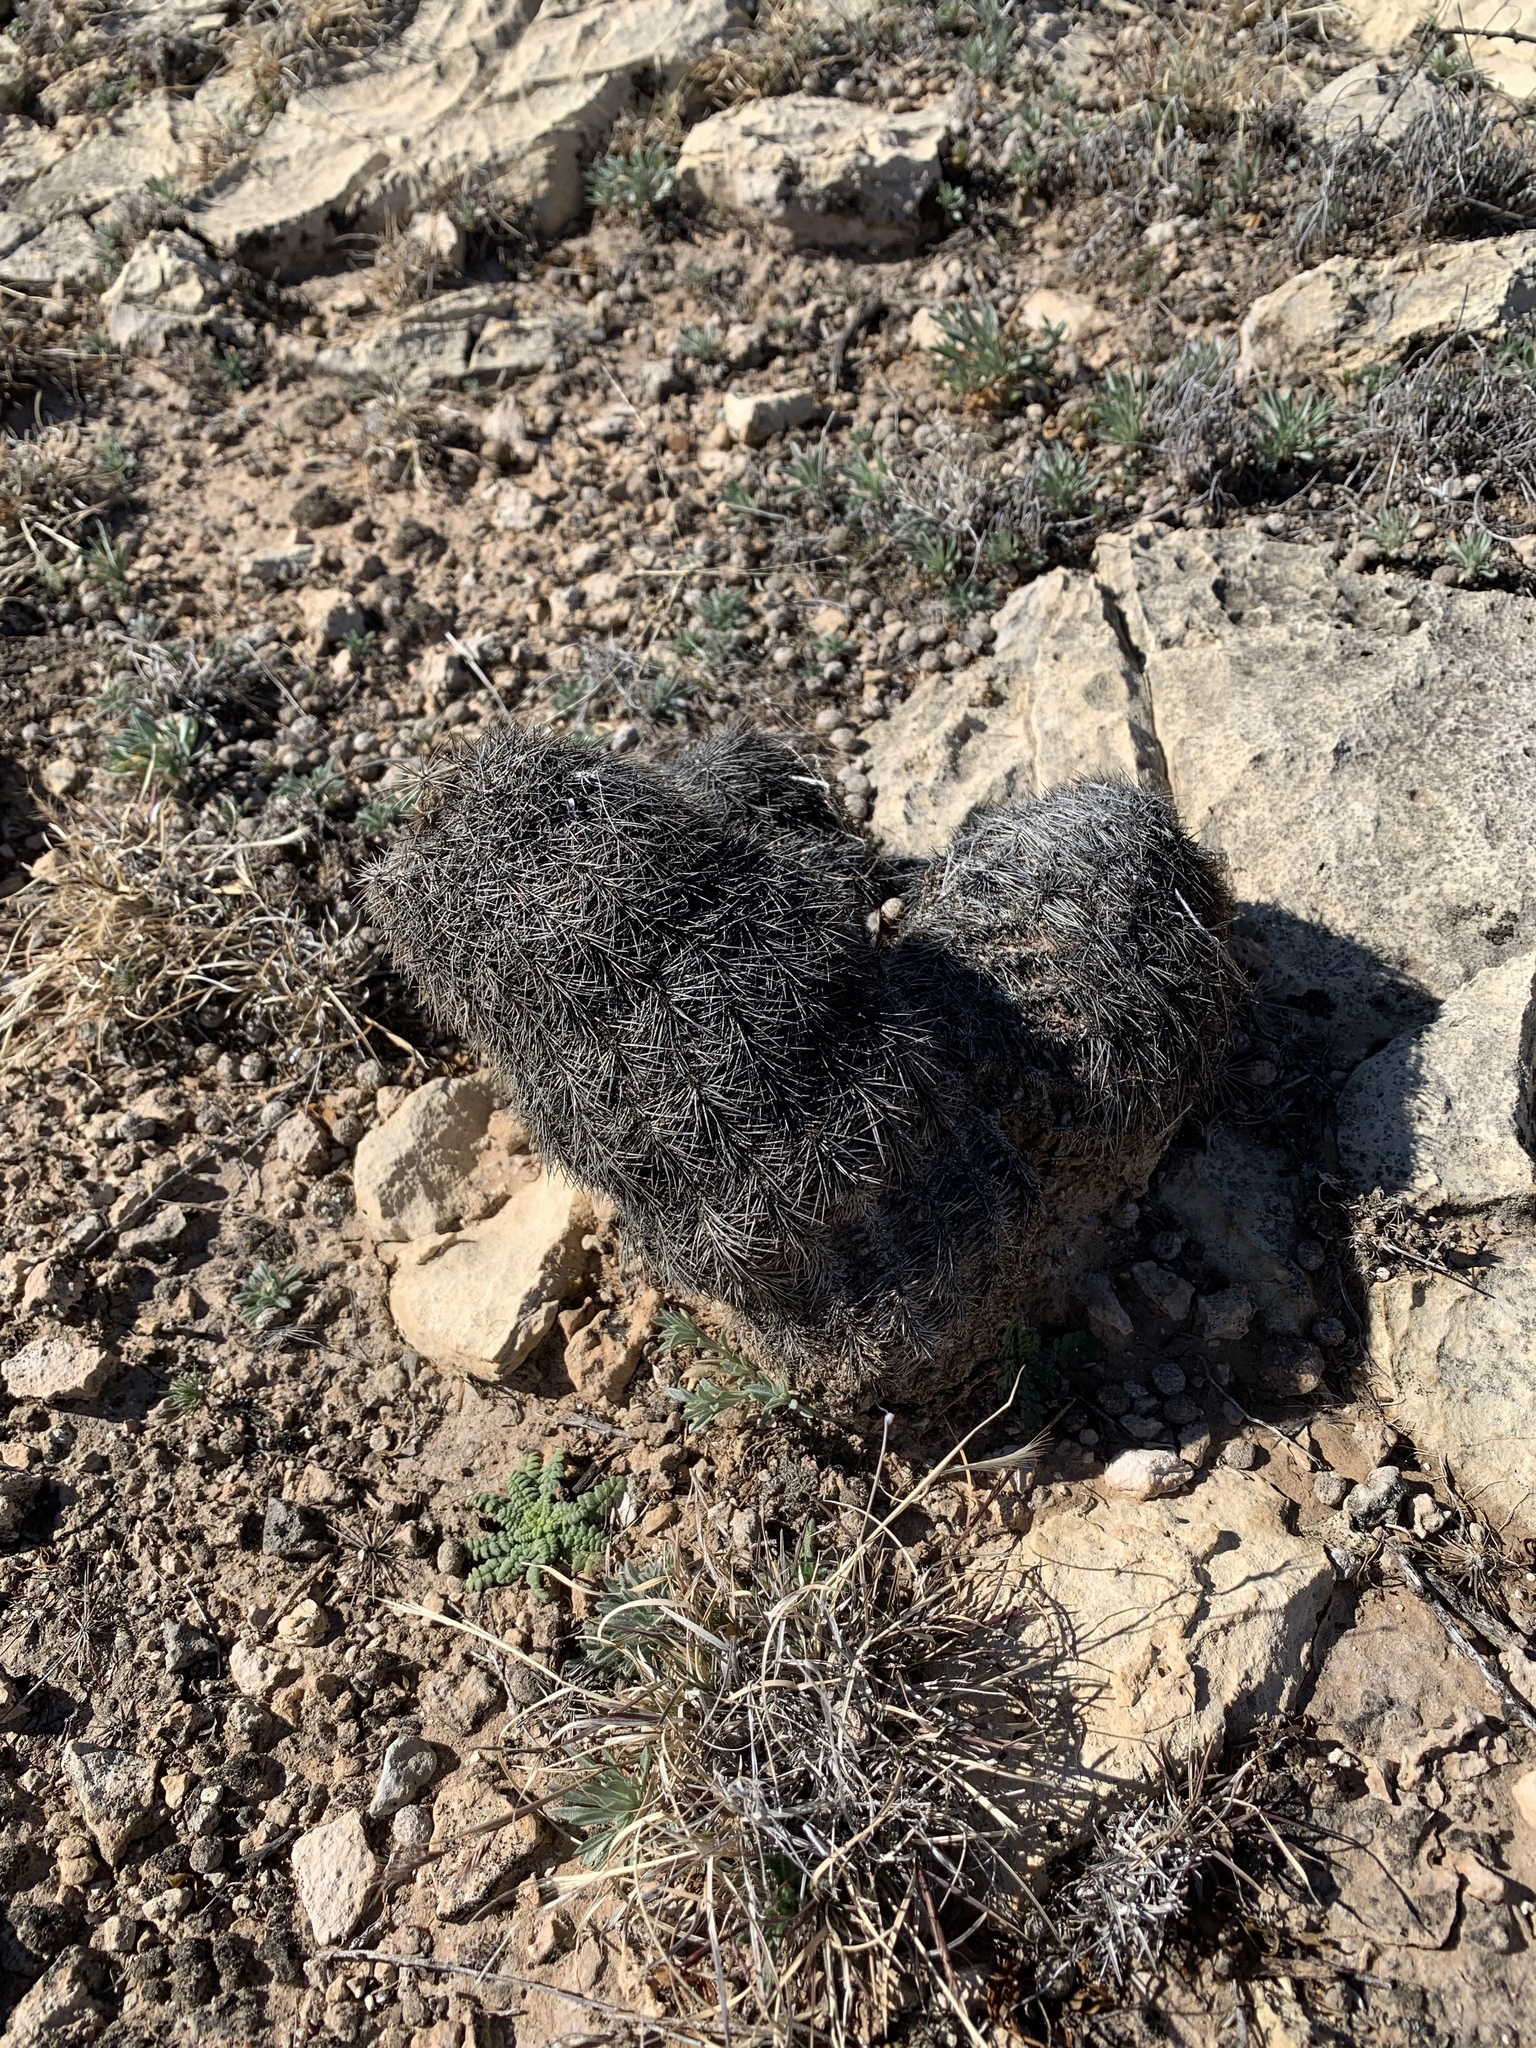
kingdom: Plantae
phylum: Tracheophyta
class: Magnoliopsida
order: Caryophyllales
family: Cactaceae
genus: Echinocereus
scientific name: Echinocereus dasyacanthus
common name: Spiny hedgehog cactus
